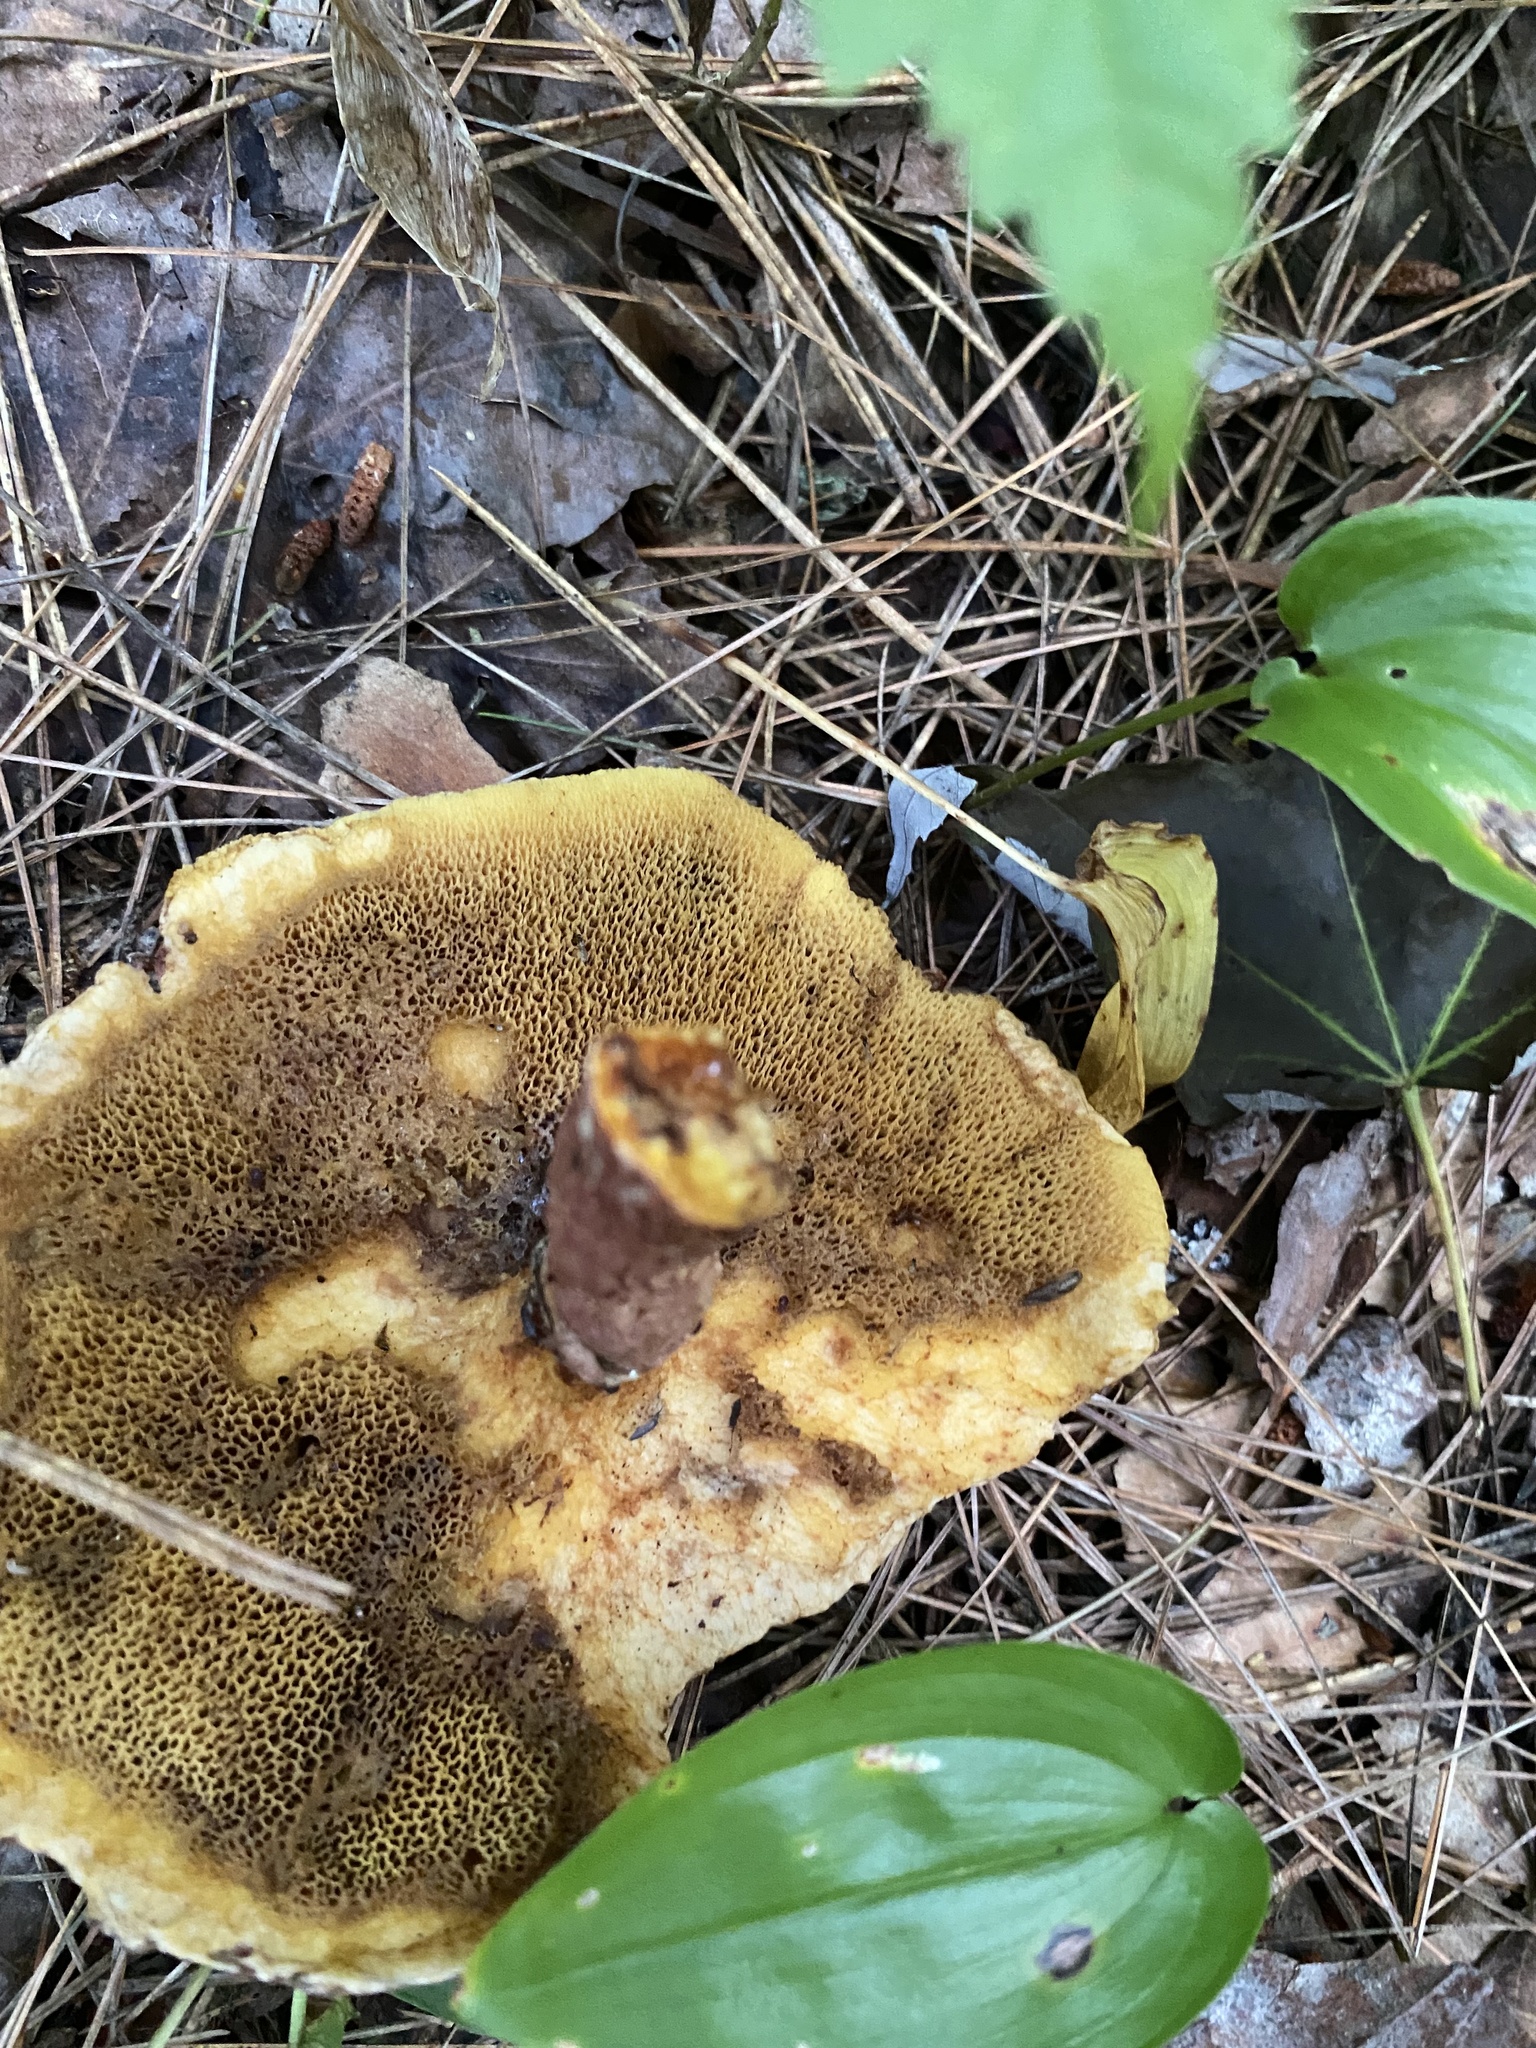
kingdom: Fungi
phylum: Basidiomycota
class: Agaricomycetes
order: Boletales
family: Suillaceae
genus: Suillus
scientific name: Suillus spraguei
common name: Painted suillus
